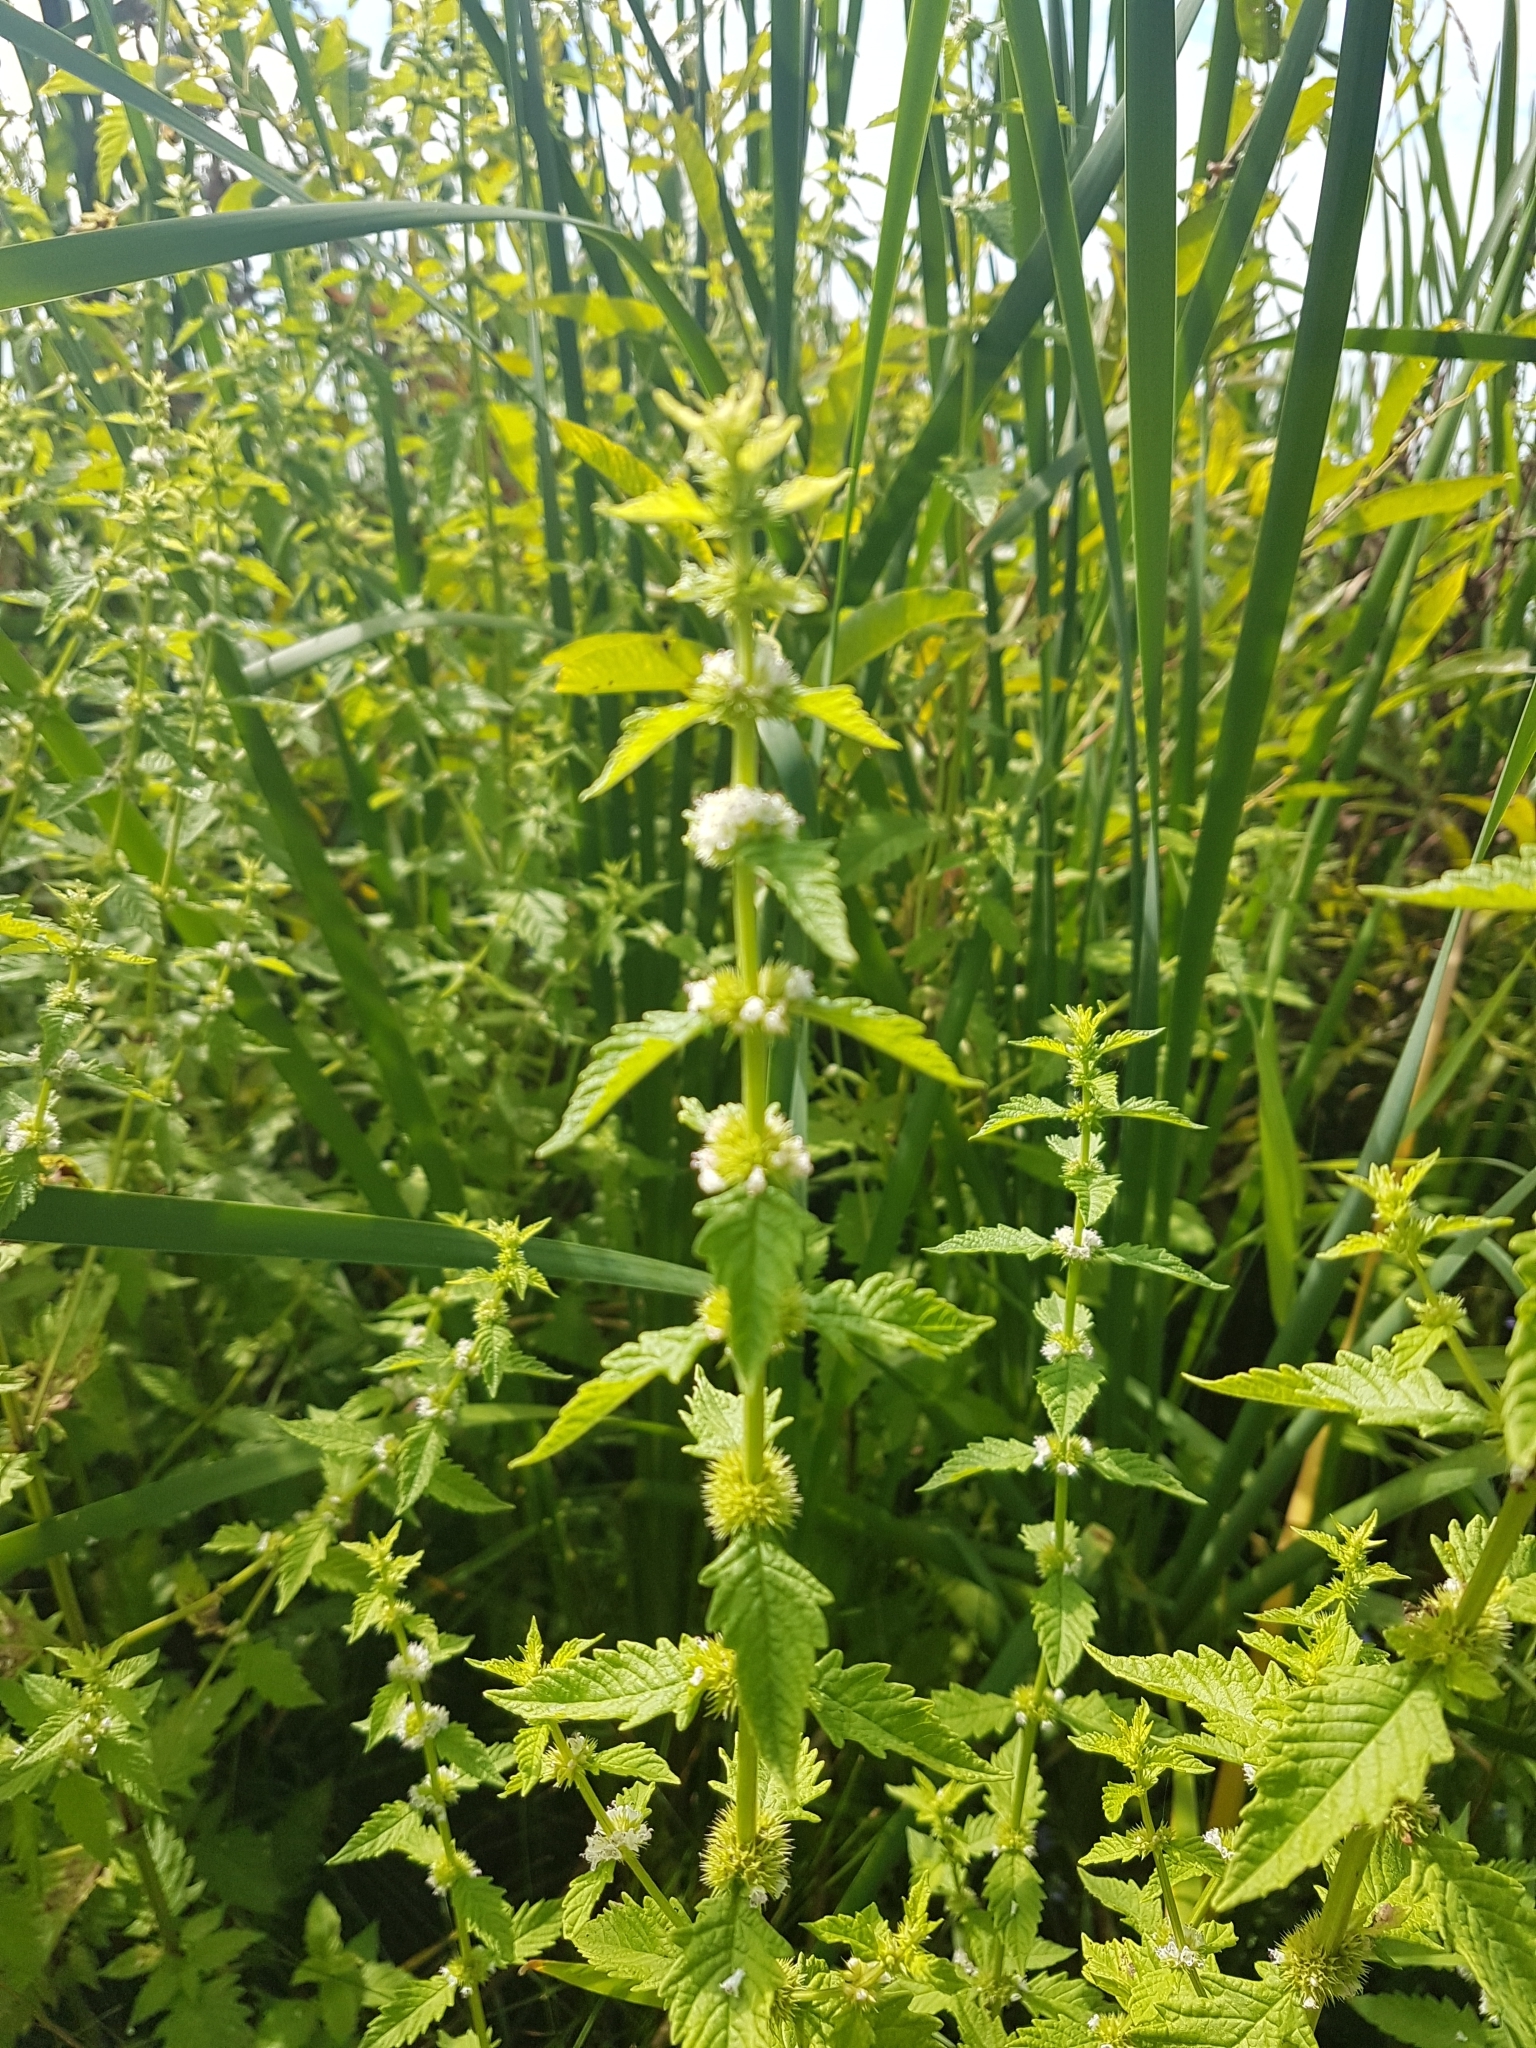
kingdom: Plantae
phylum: Tracheophyta
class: Magnoliopsida
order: Lamiales
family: Lamiaceae
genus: Lycopus
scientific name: Lycopus europaeus
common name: European bugleweed
